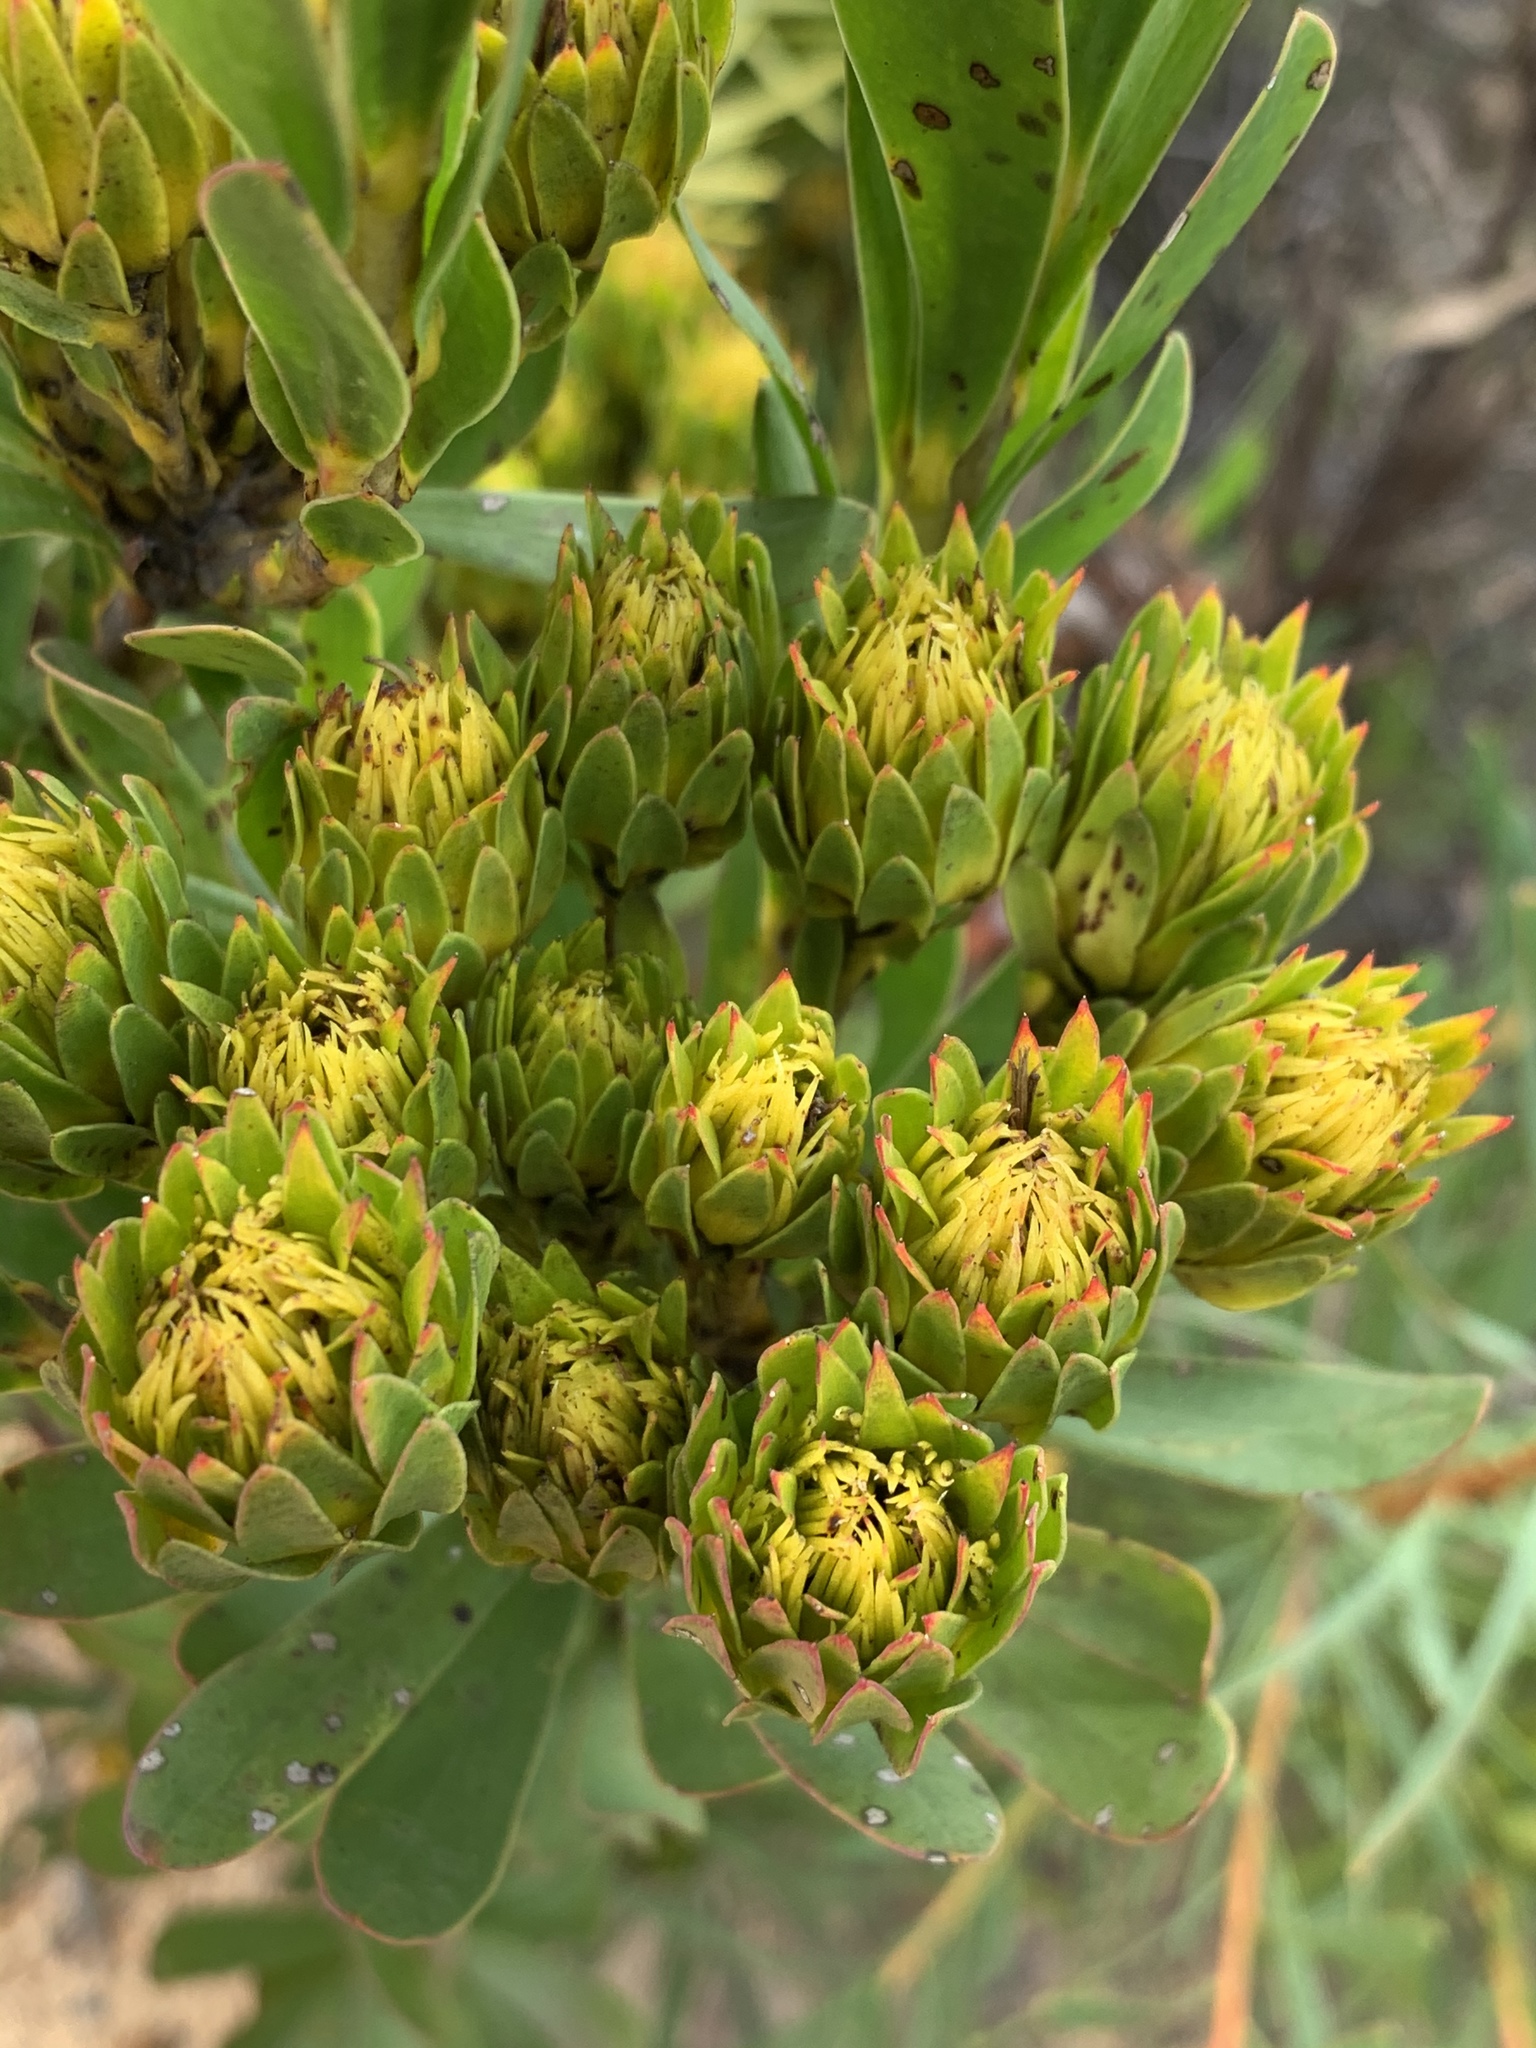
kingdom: Plantae
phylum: Tracheophyta
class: Magnoliopsida
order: Proteales
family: Proteaceae
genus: Aulax
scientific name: Aulax umbellata
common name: Broad-leaf featherbush
